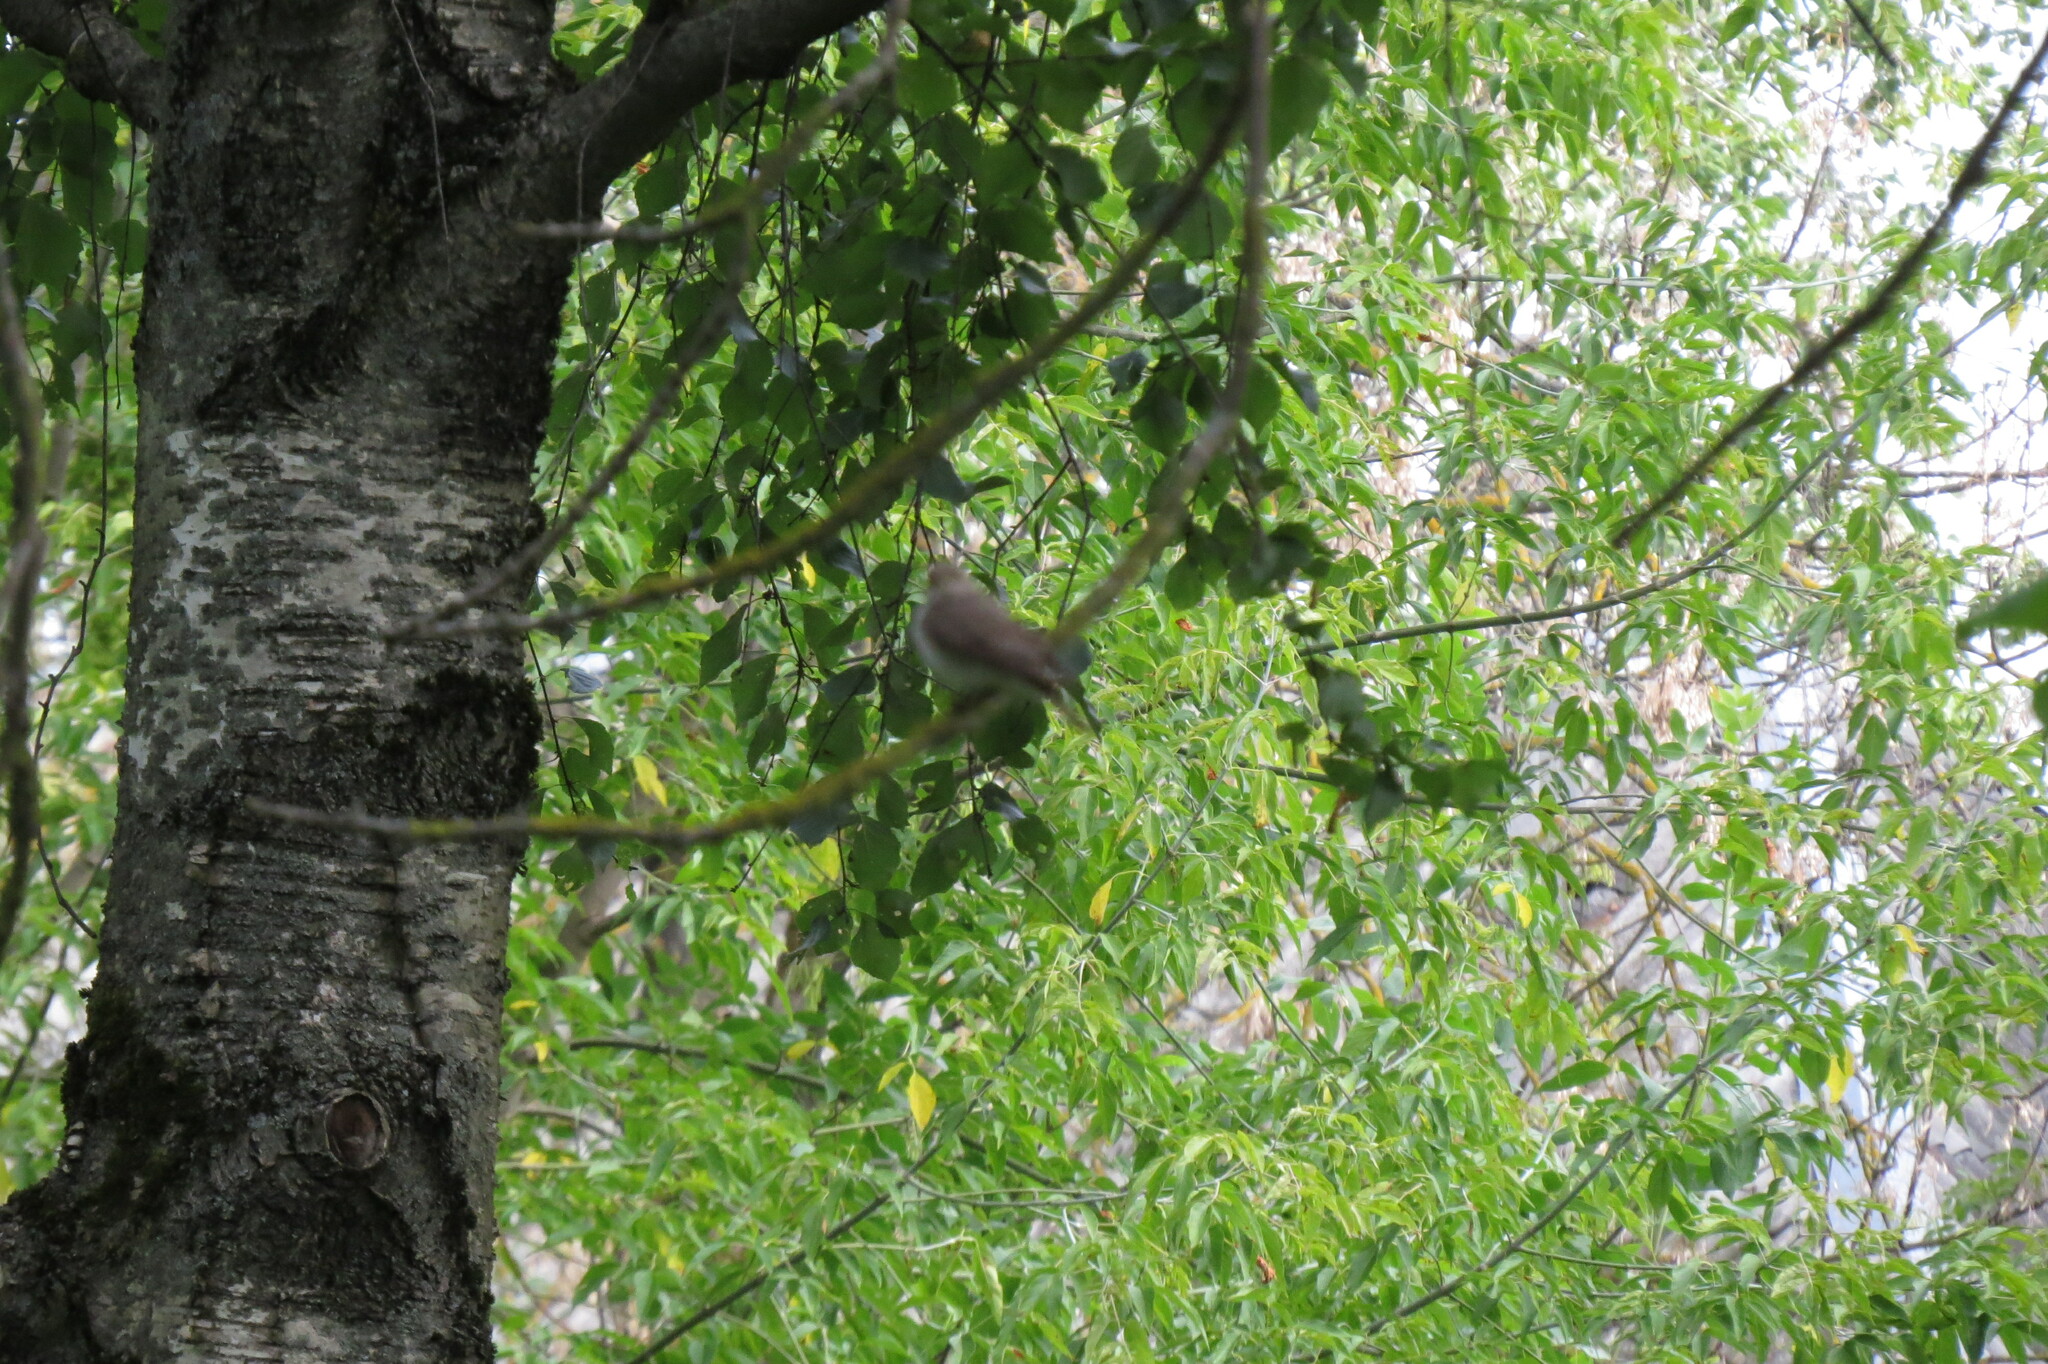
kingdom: Animalia
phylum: Chordata
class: Aves
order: Passeriformes
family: Muscicapidae
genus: Muscicapa
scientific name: Muscicapa striata
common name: Spotted flycatcher
